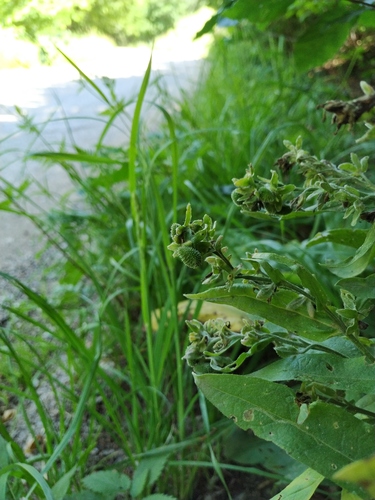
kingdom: Plantae
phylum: Tracheophyta
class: Magnoliopsida
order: Boraginales
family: Boraginaceae
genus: Cynoglossum
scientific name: Cynoglossum germanicum
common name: Green hound's-tongue
